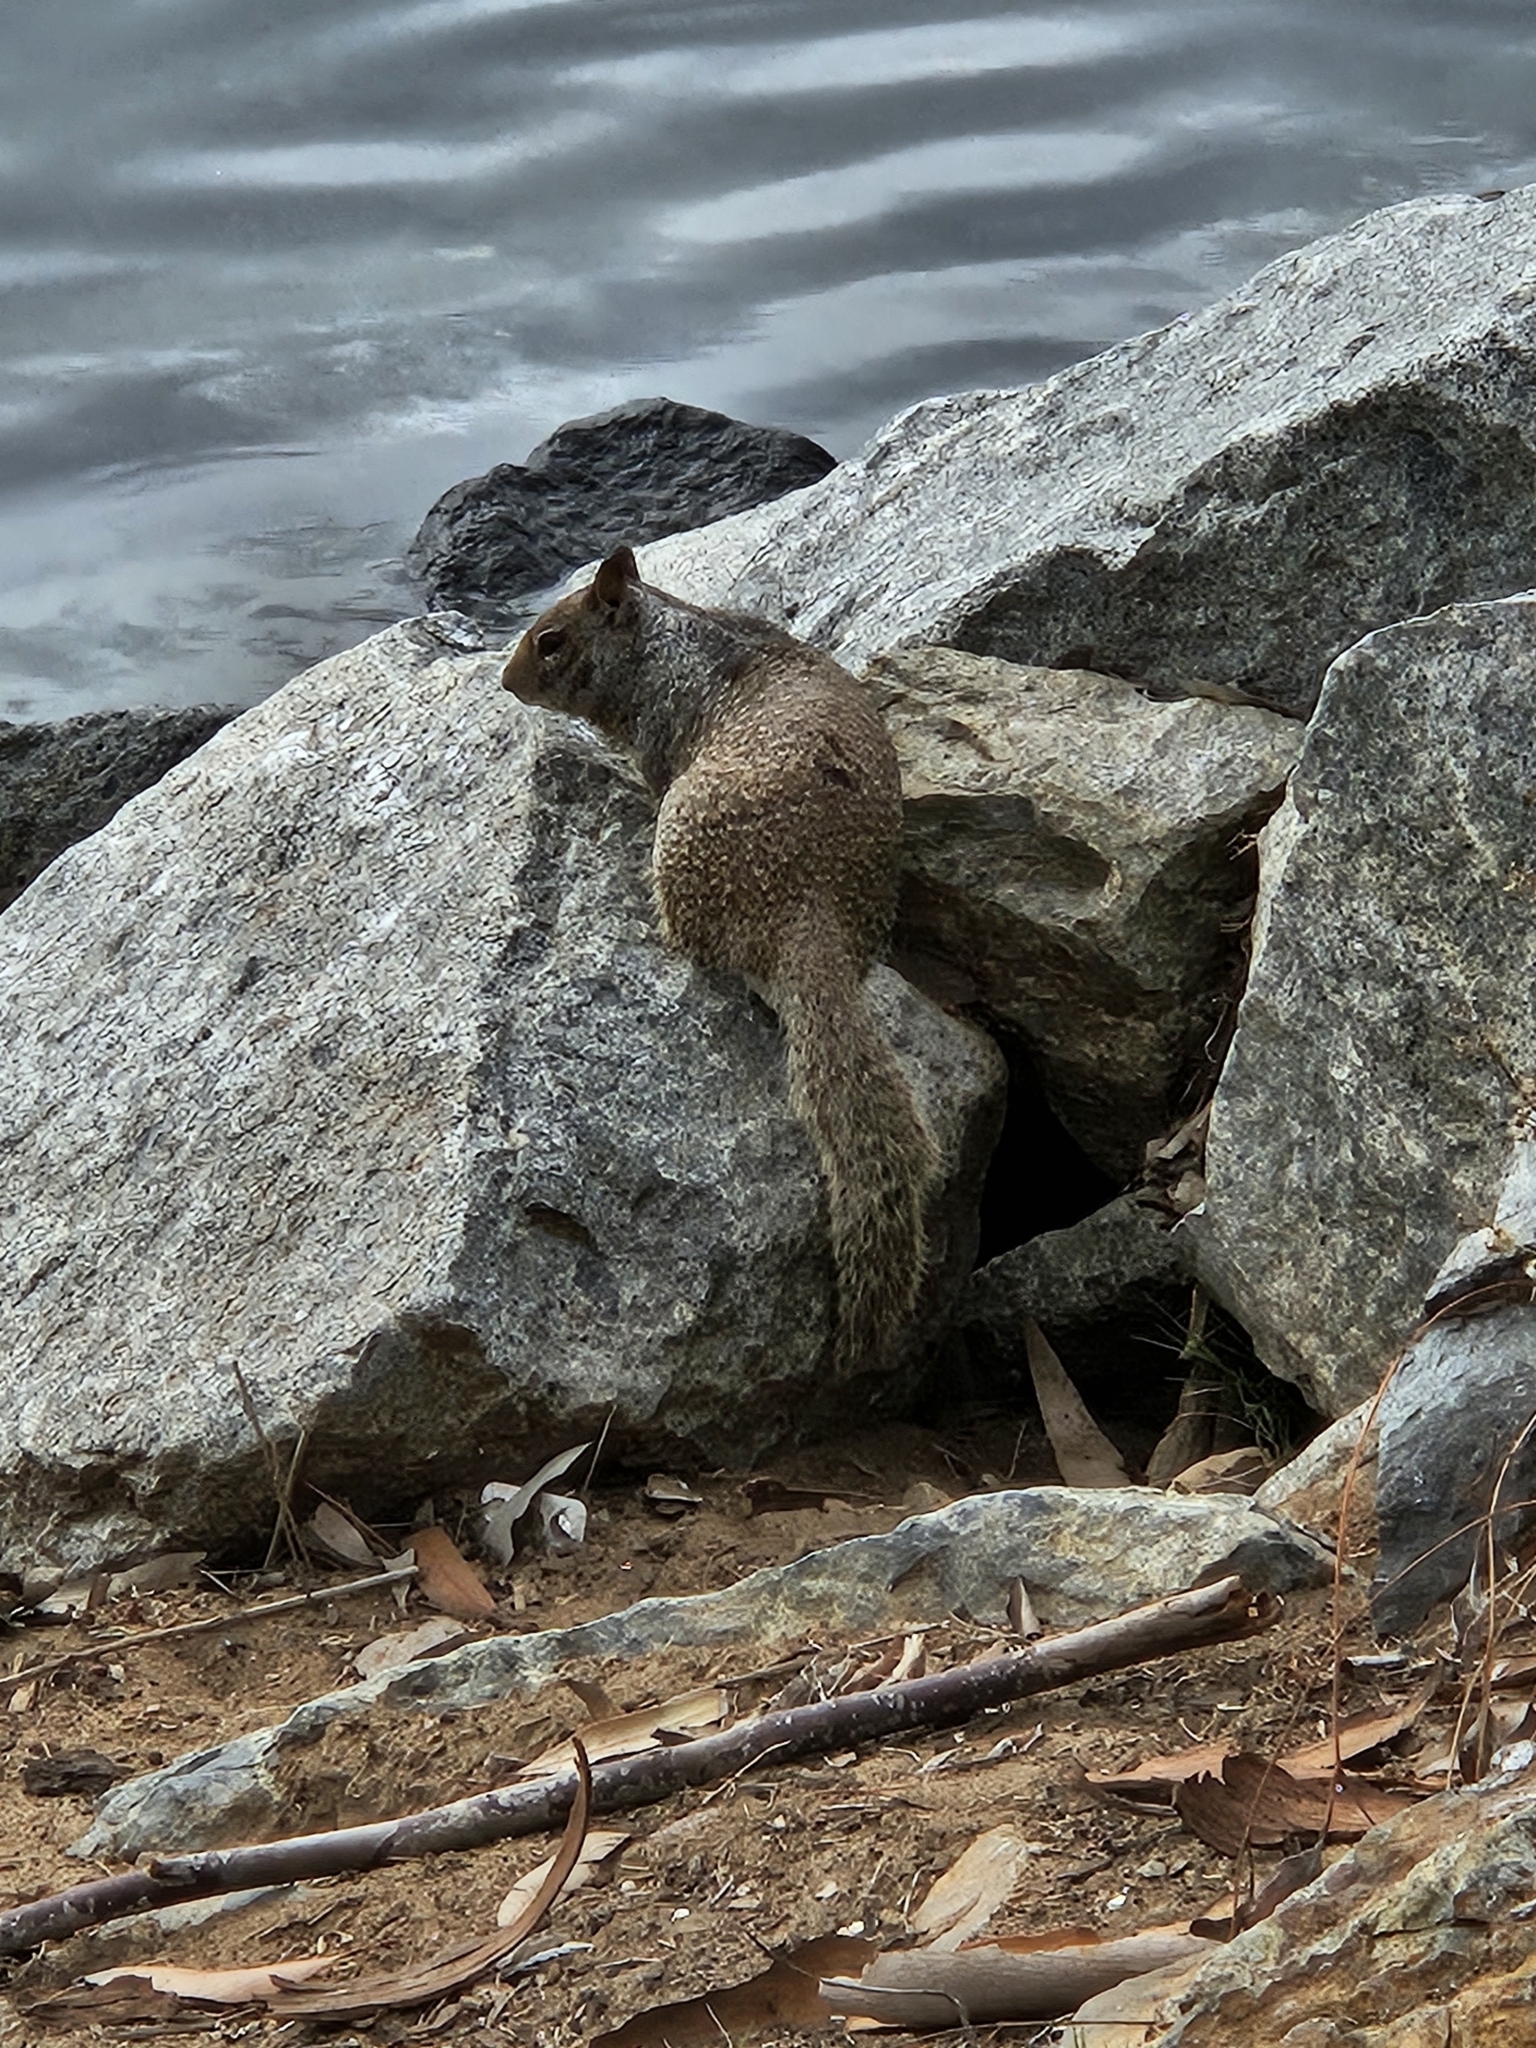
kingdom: Animalia
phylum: Chordata
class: Mammalia
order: Rodentia
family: Sciuridae
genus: Otospermophilus
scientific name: Otospermophilus beecheyi
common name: California ground squirrel
